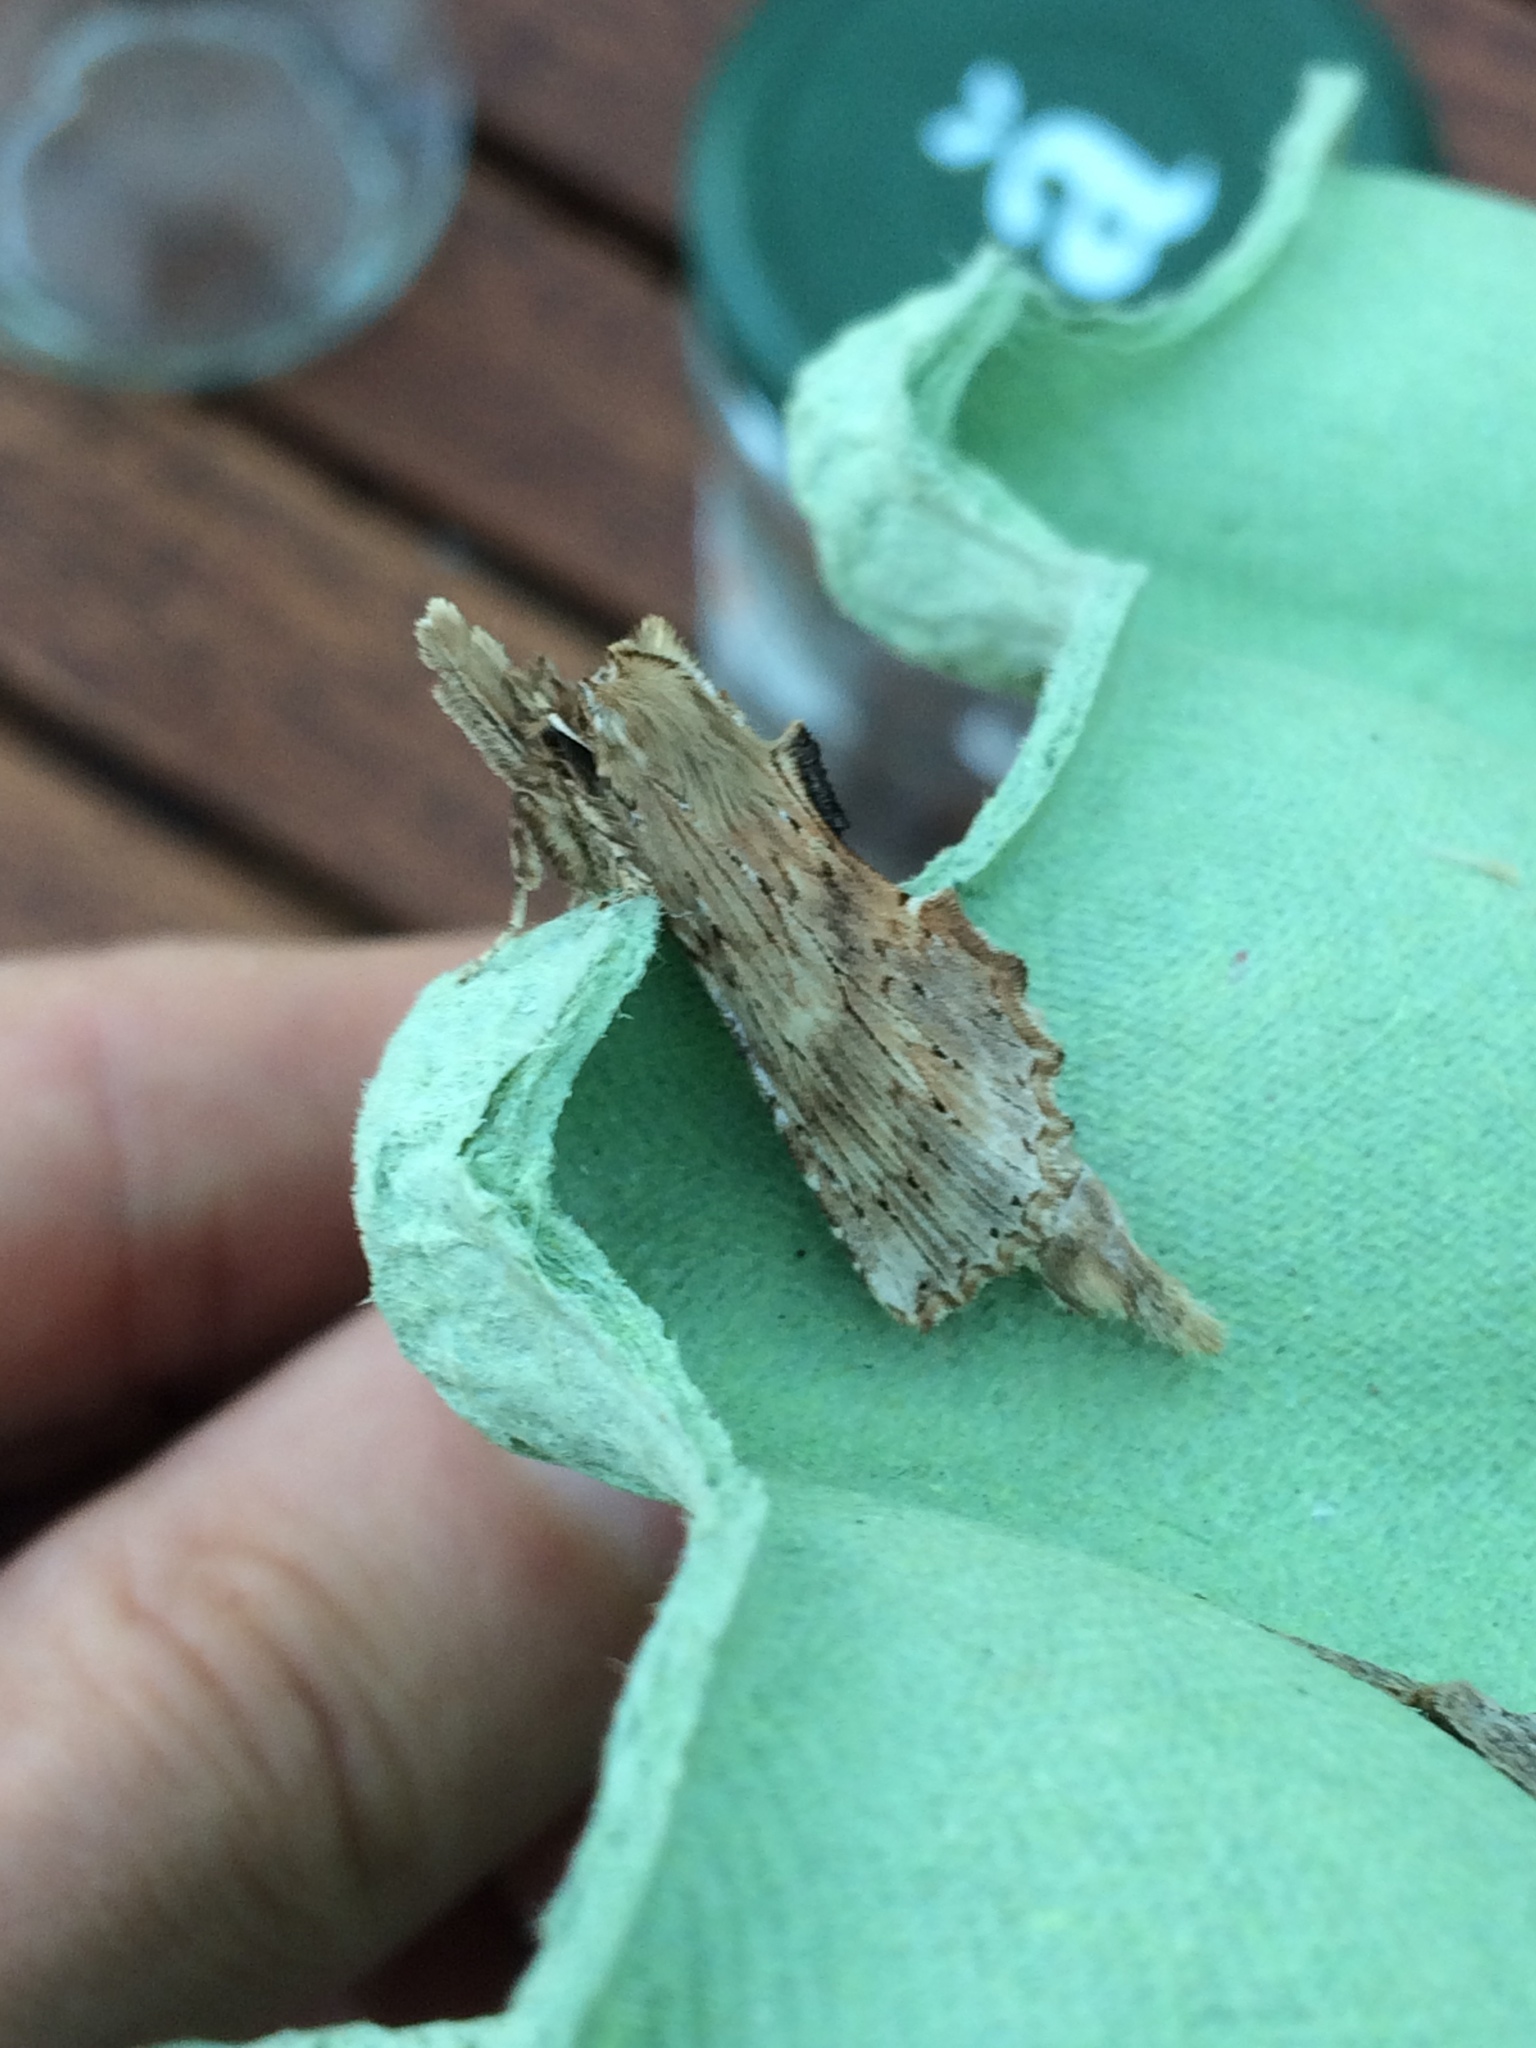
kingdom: Animalia
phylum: Arthropoda
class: Insecta
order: Lepidoptera
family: Notodontidae
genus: Pterostoma
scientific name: Pterostoma palpina
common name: Pale prominent
